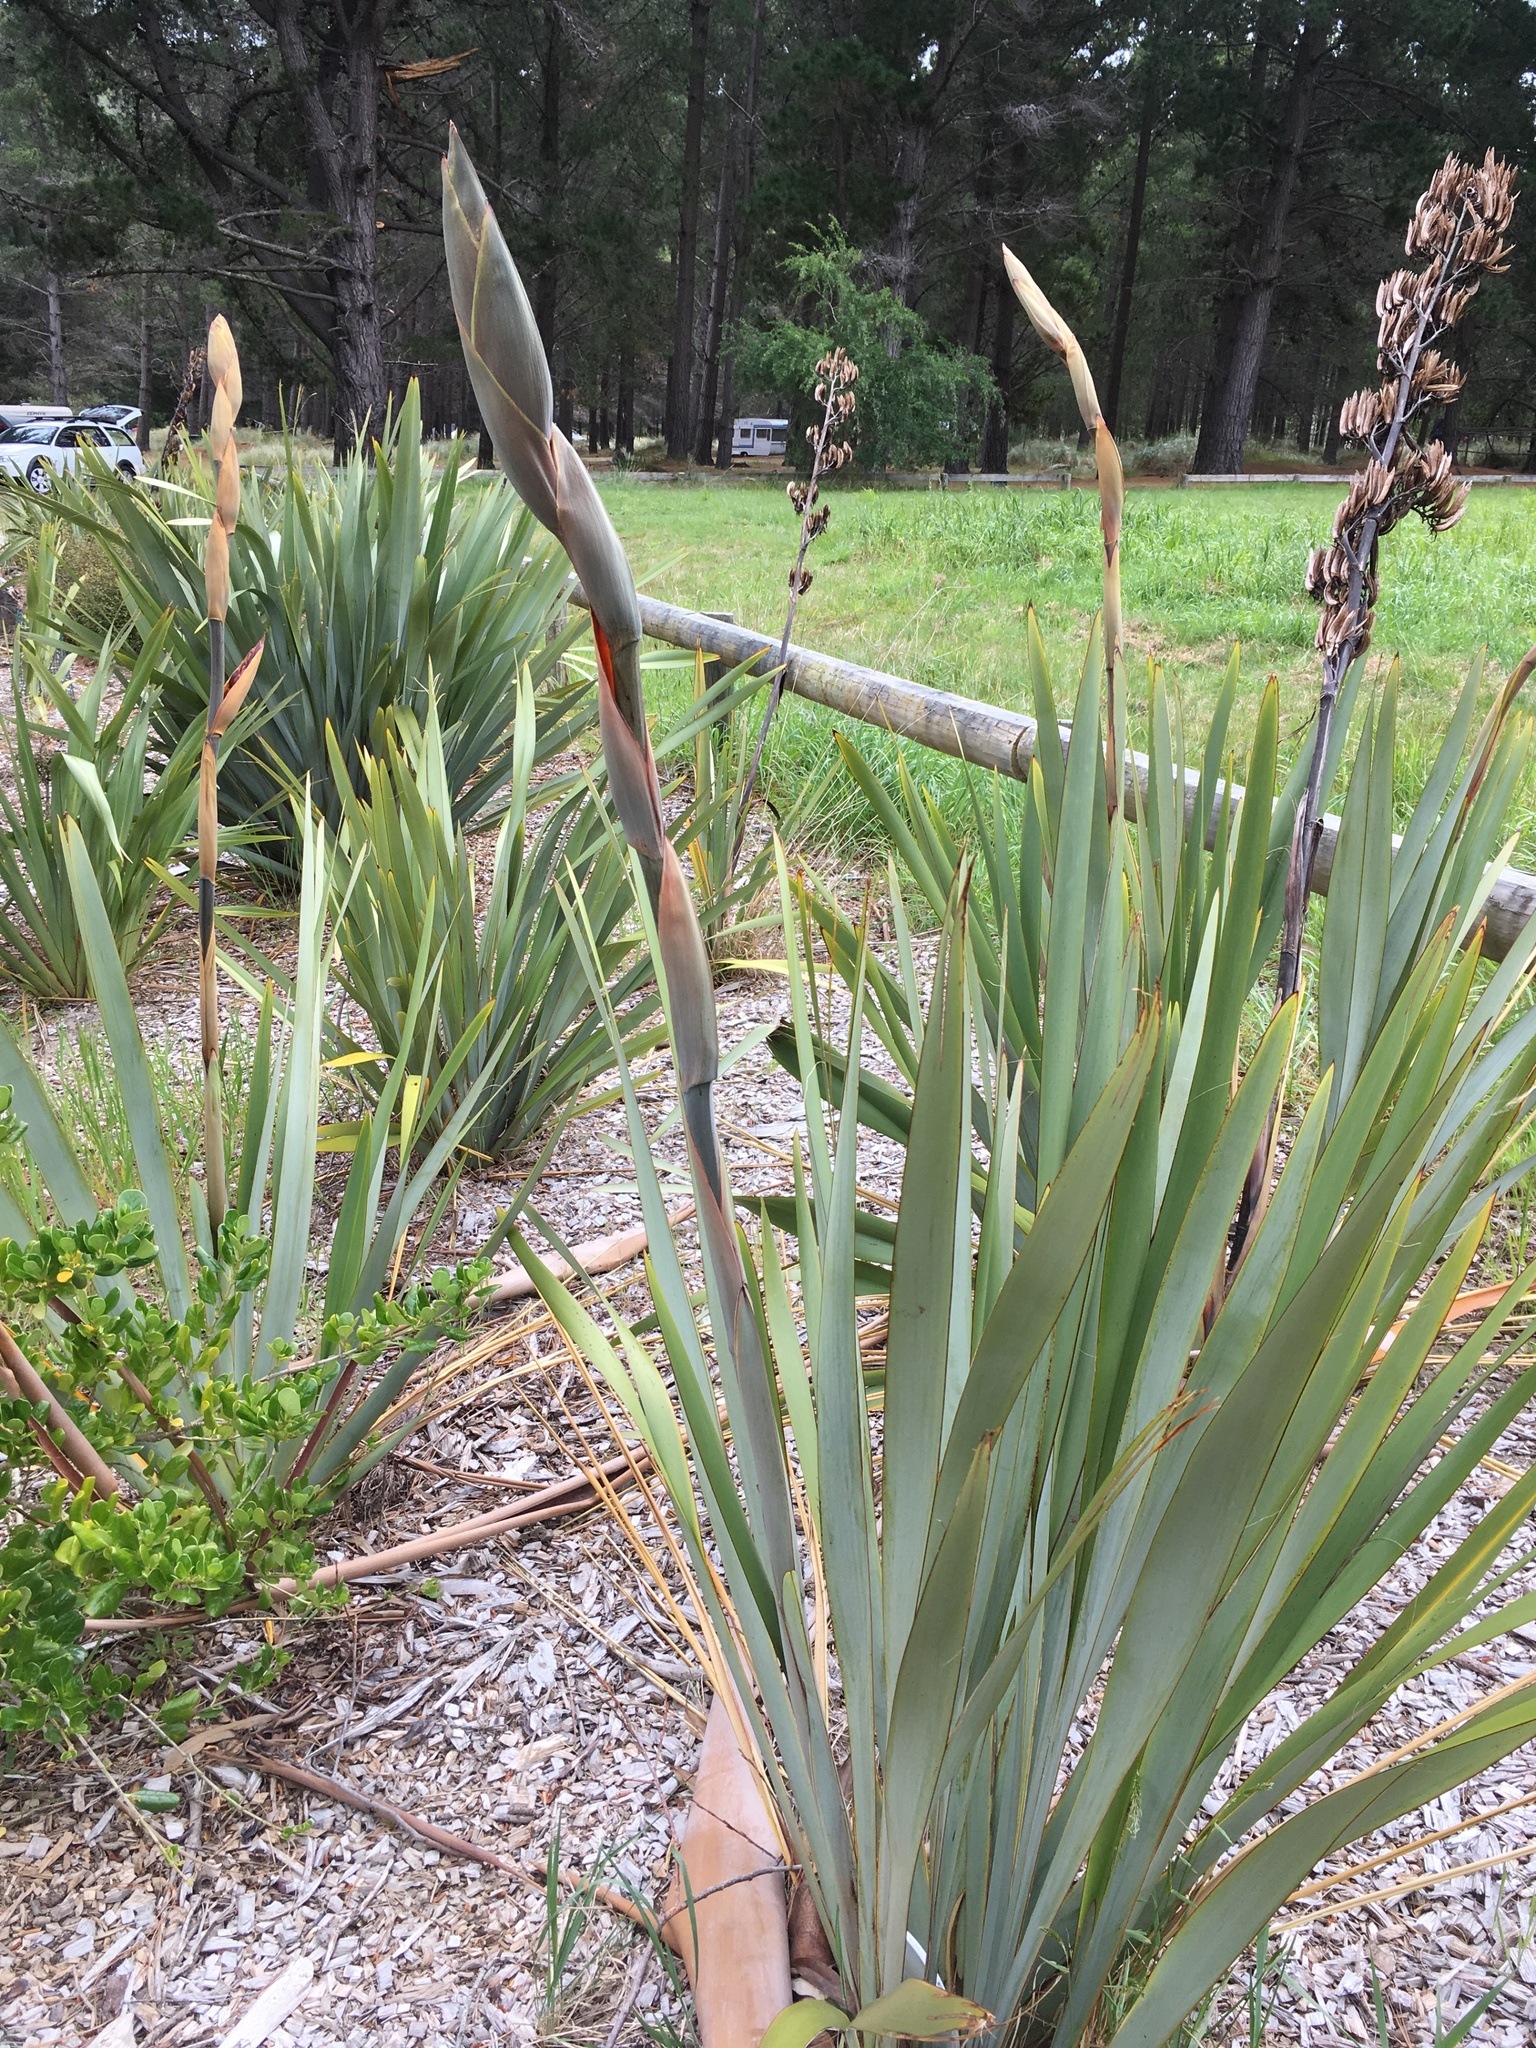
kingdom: Plantae
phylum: Tracheophyta
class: Liliopsida
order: Asparagales
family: Asphodelaceae
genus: Phormium
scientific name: Phormium tenax
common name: New zealand flax
